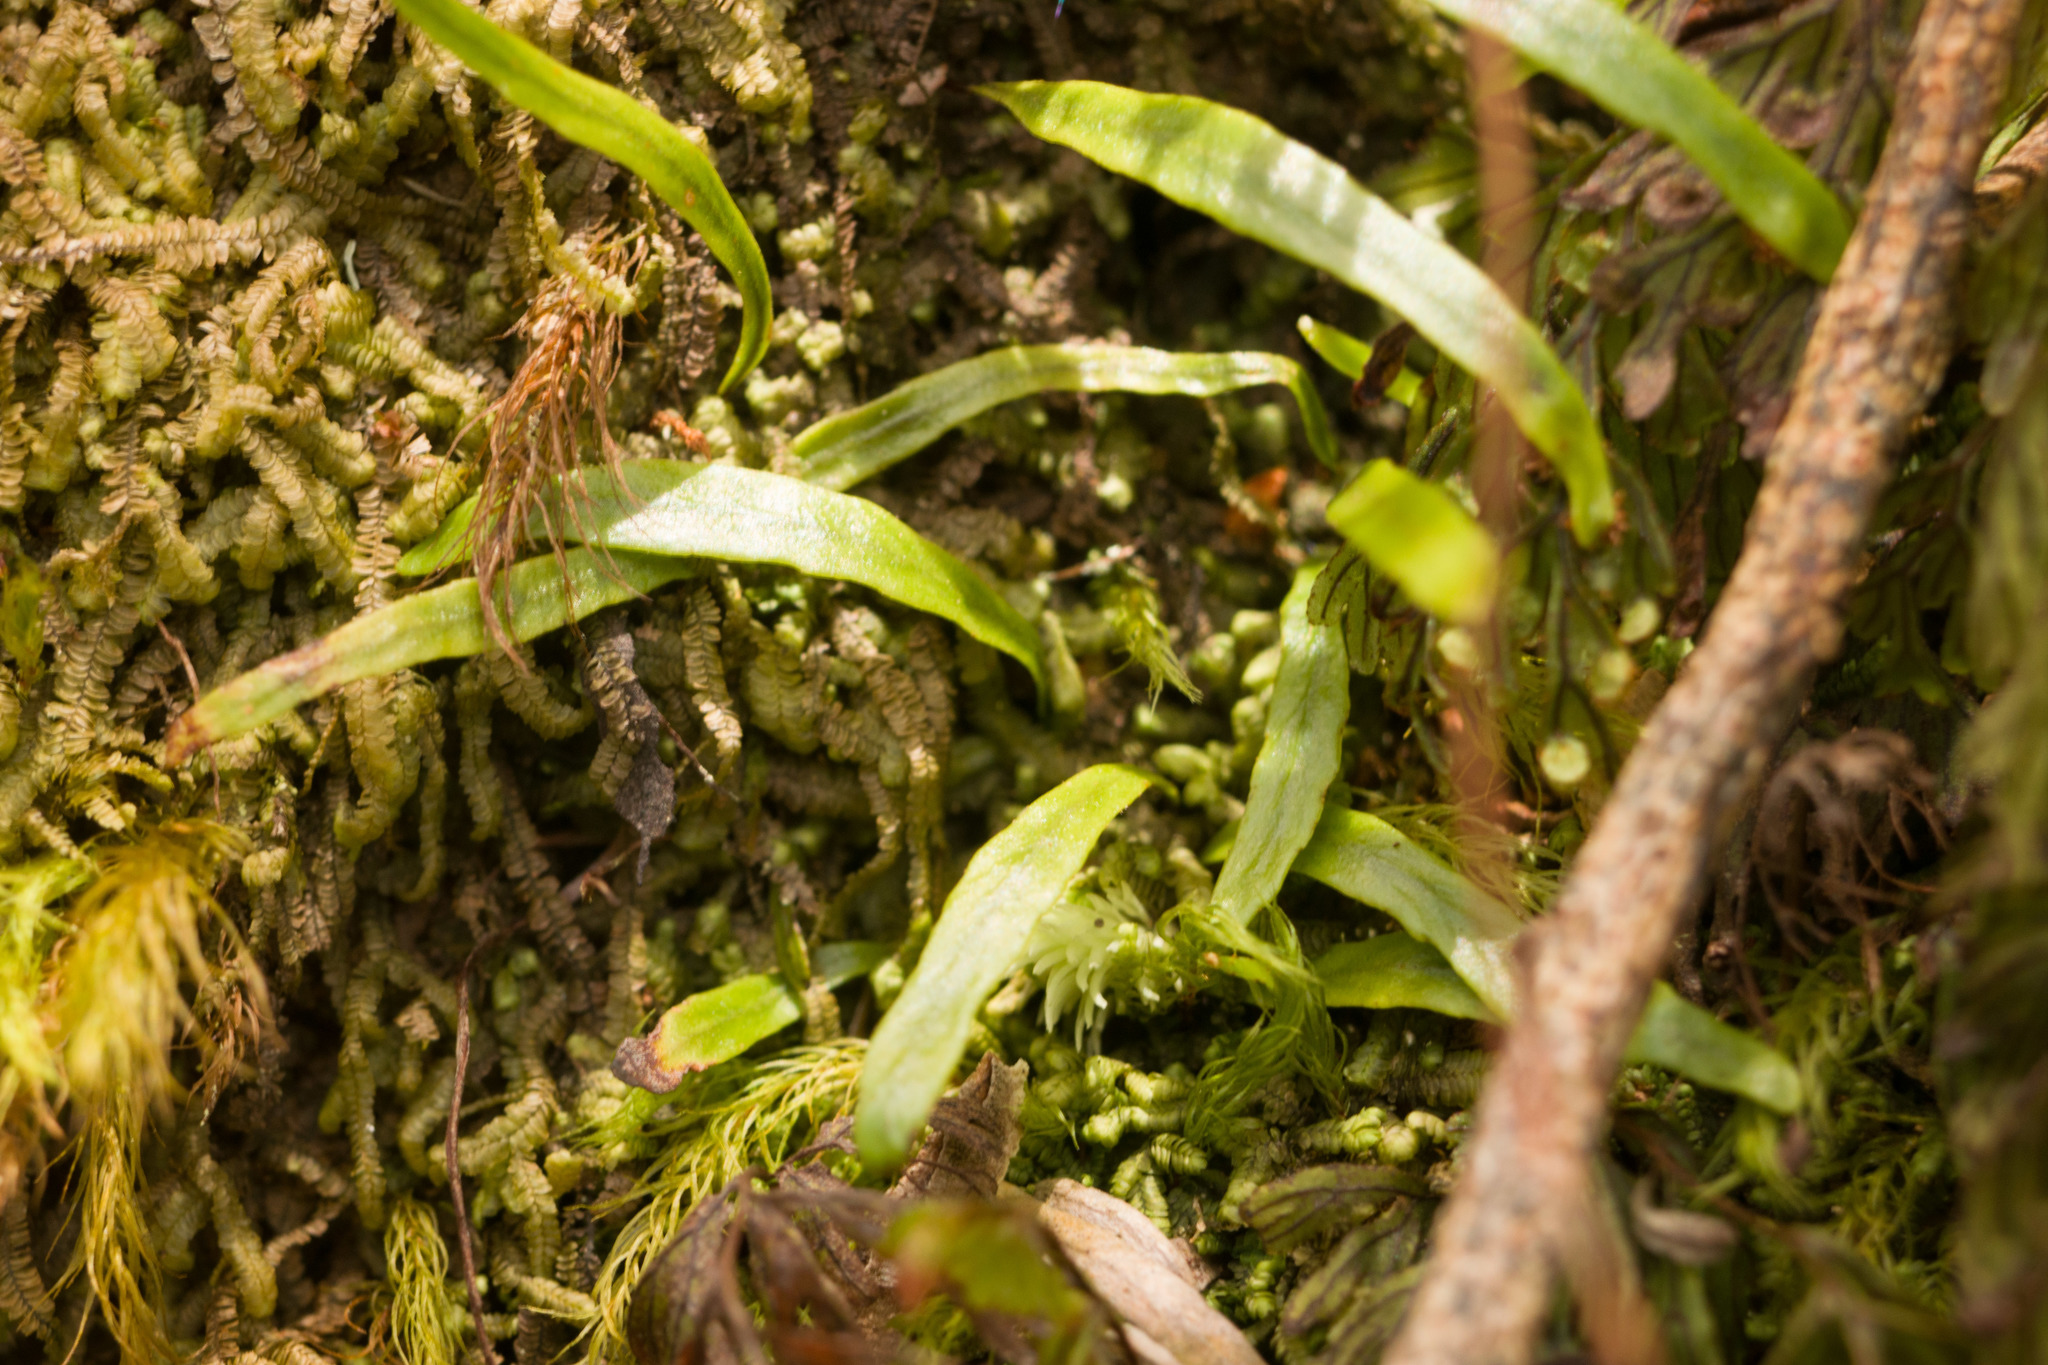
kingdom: Plantae
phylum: Tracheophyta
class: Polypodiopsida
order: Polypodiales
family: Polypodiaceae
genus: Adenophorus
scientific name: Adenophorus tenellus
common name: Kolokolo
